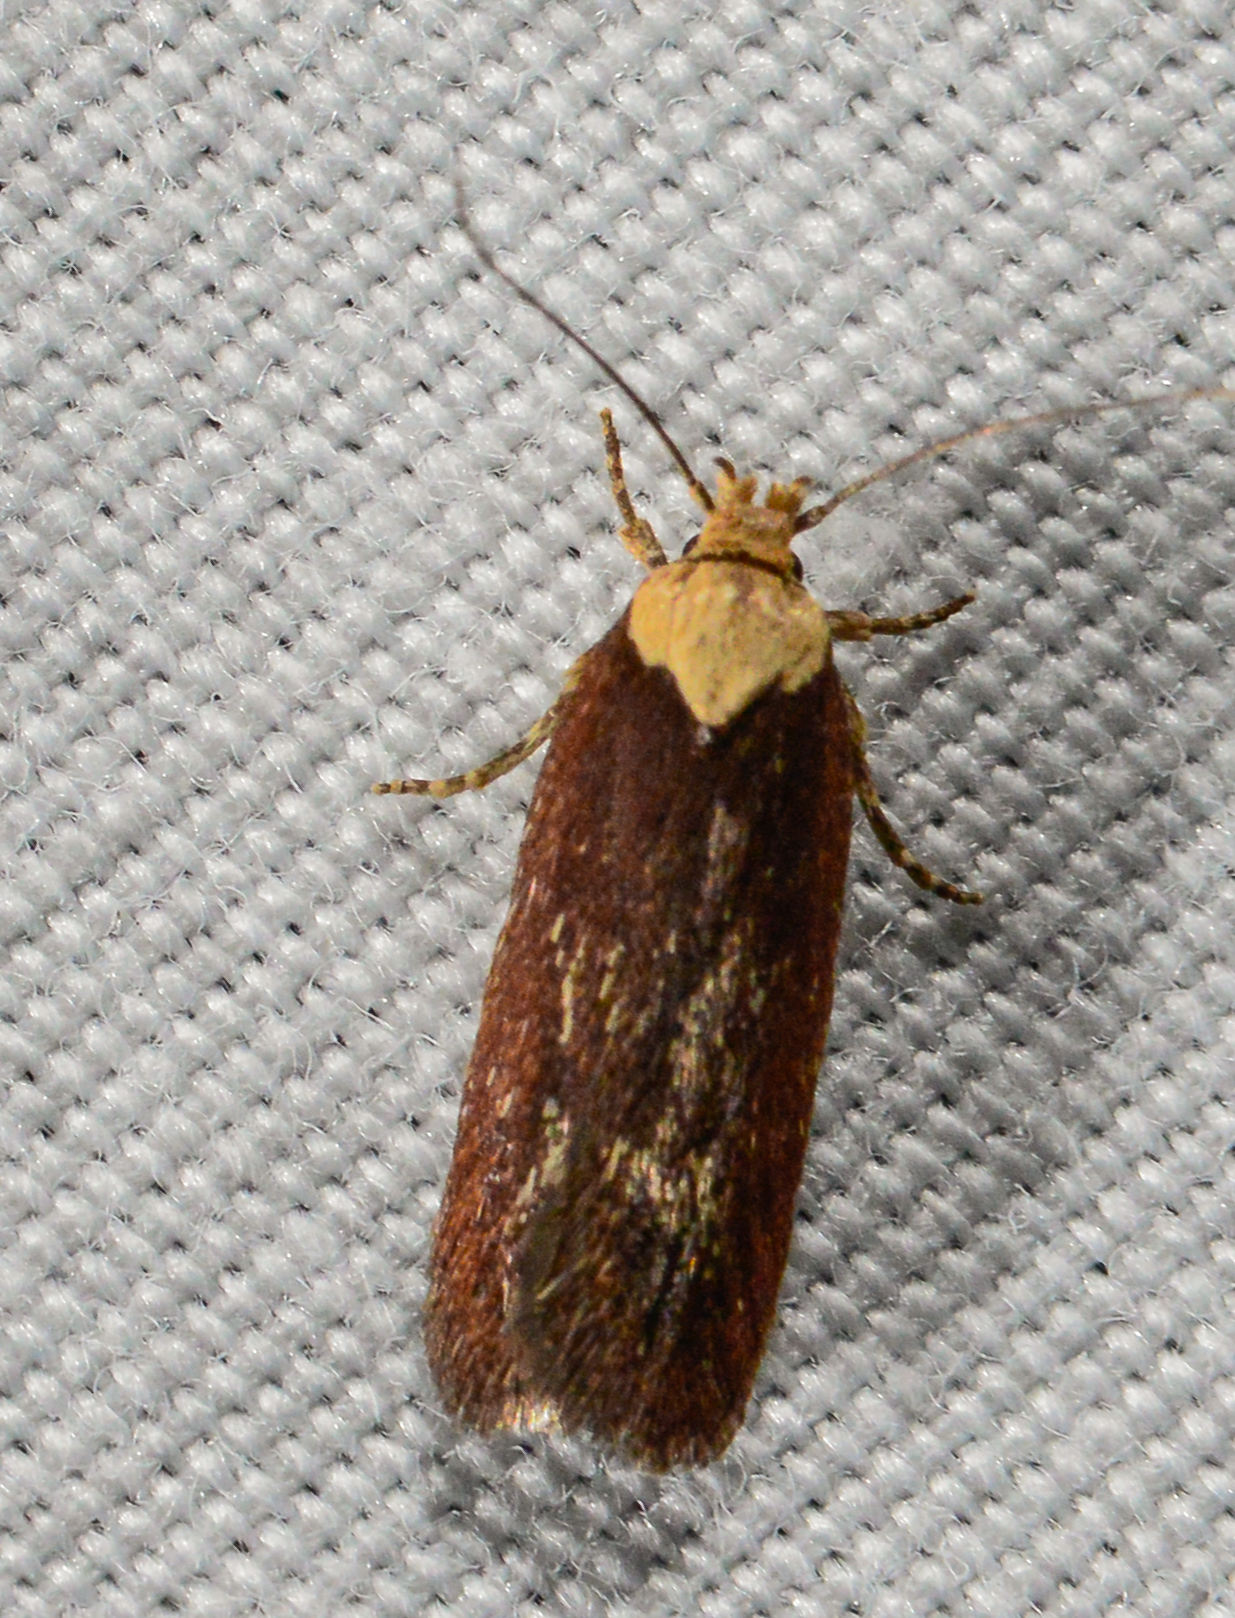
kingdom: Animalia
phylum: Arthropoda
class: Insecta
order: Lepidoptera
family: Depressariidae
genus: Depressaria
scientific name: Depressaria depressana
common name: Lost flat-body
